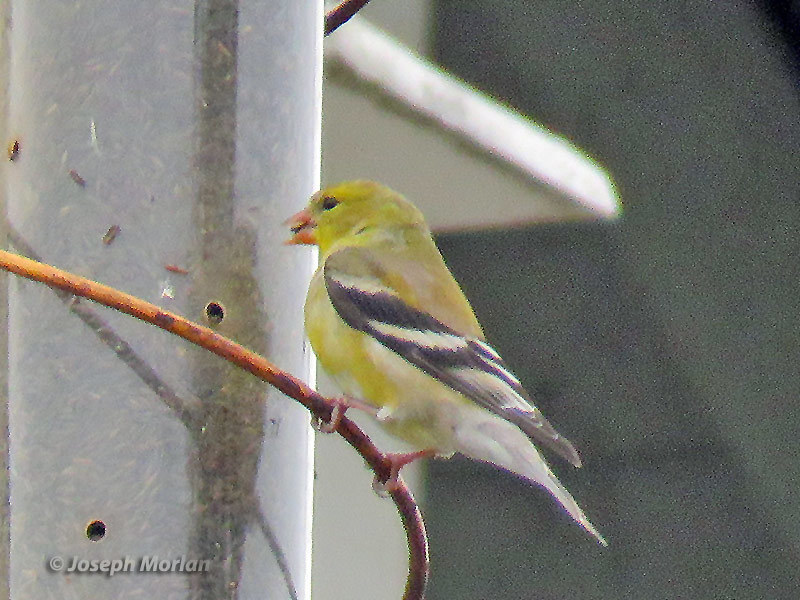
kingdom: Animalia
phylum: Chordata
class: Aves
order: Passeriformes
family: Fringillidae
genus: Spinus
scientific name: Spinus tristis
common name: American goldfinch
